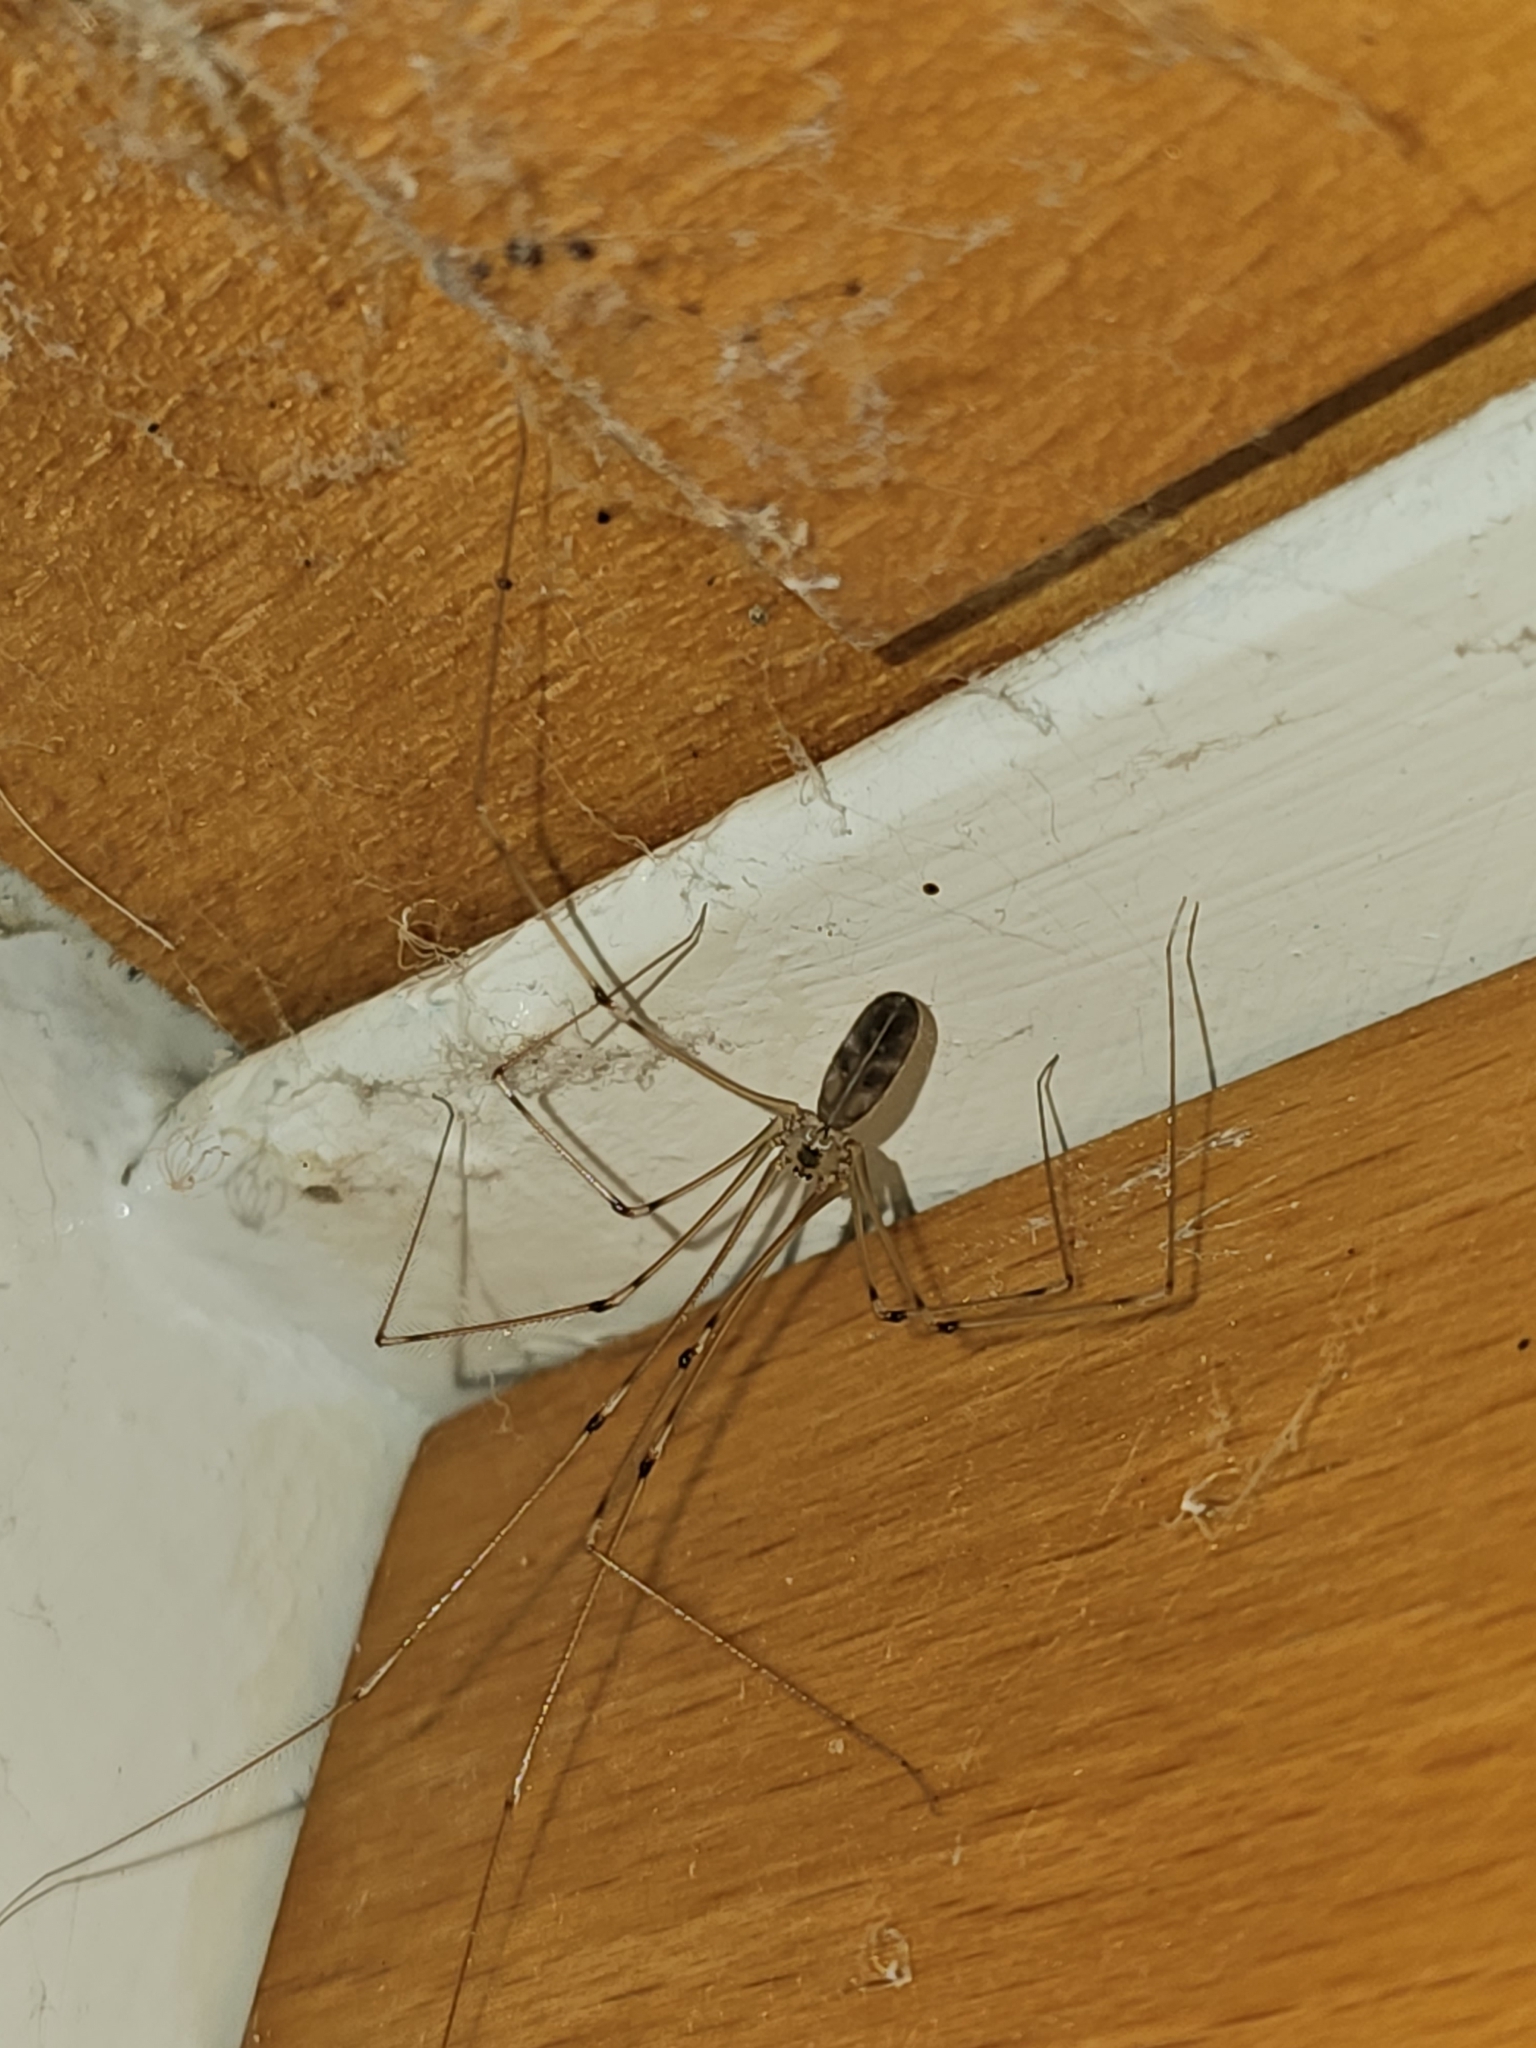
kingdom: Animalia
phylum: Arthropoda
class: Arachnida
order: Araneae
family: Pholcidae
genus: Pholcus
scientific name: Pholcus phalangioides
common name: Longbodied cellar spider
